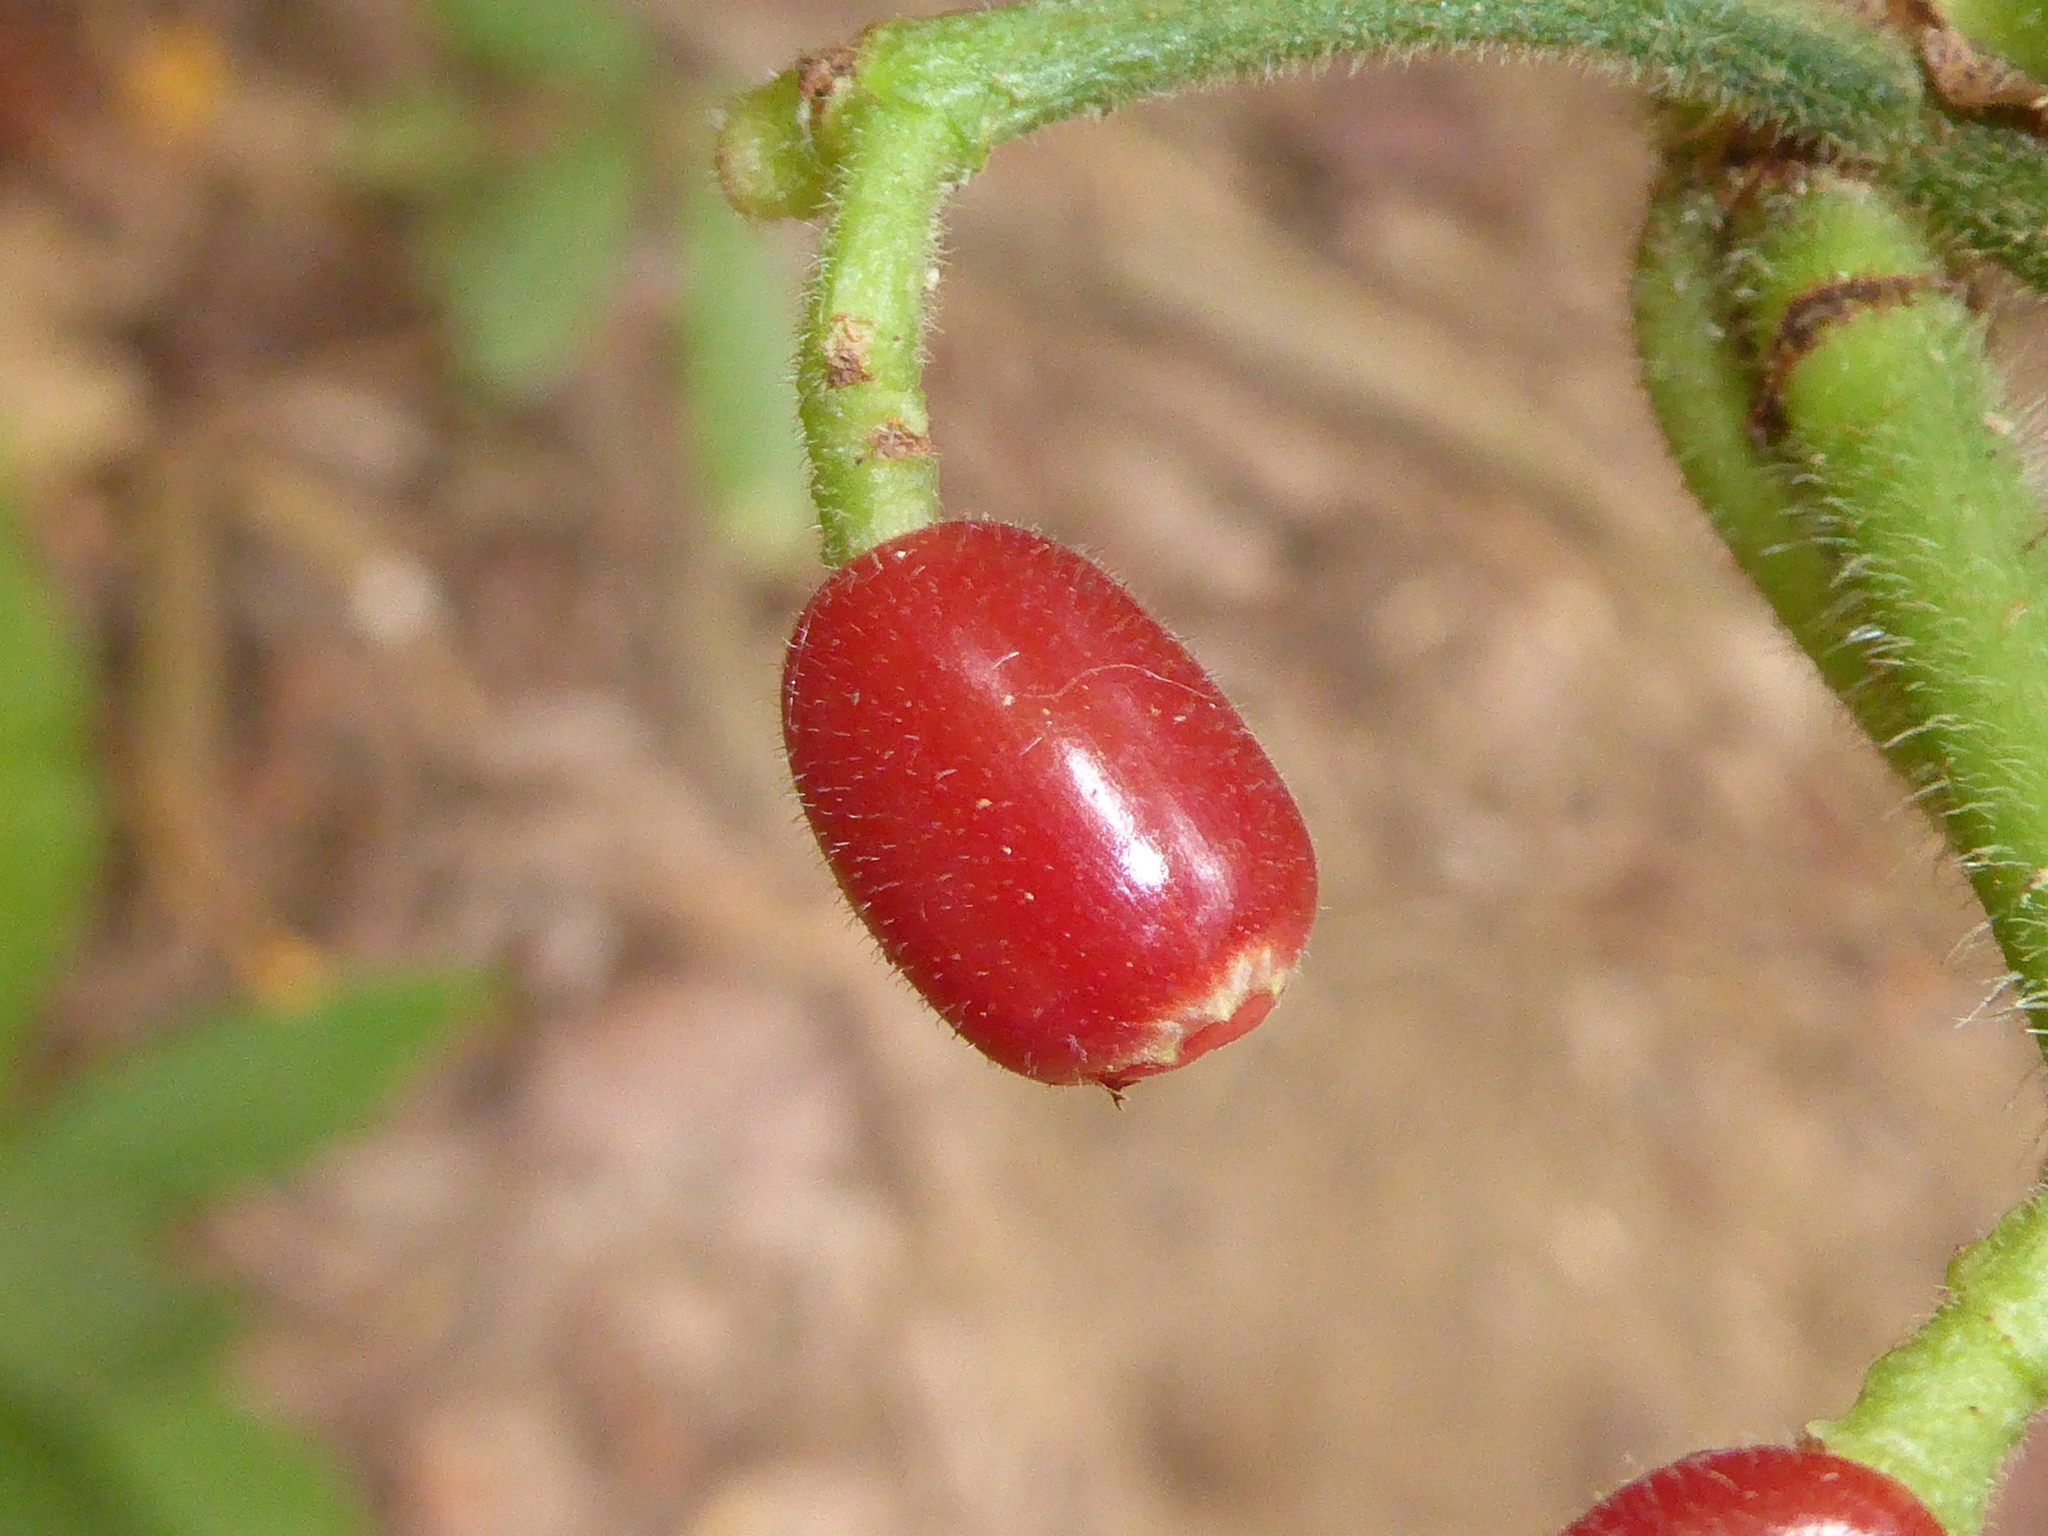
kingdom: Plantae
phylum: Tracheophyta
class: Magnoliopsida
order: Gentianales
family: Rubiaceae
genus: Psychotria
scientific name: Psychotria nervosa
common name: Bastard cankerberry
